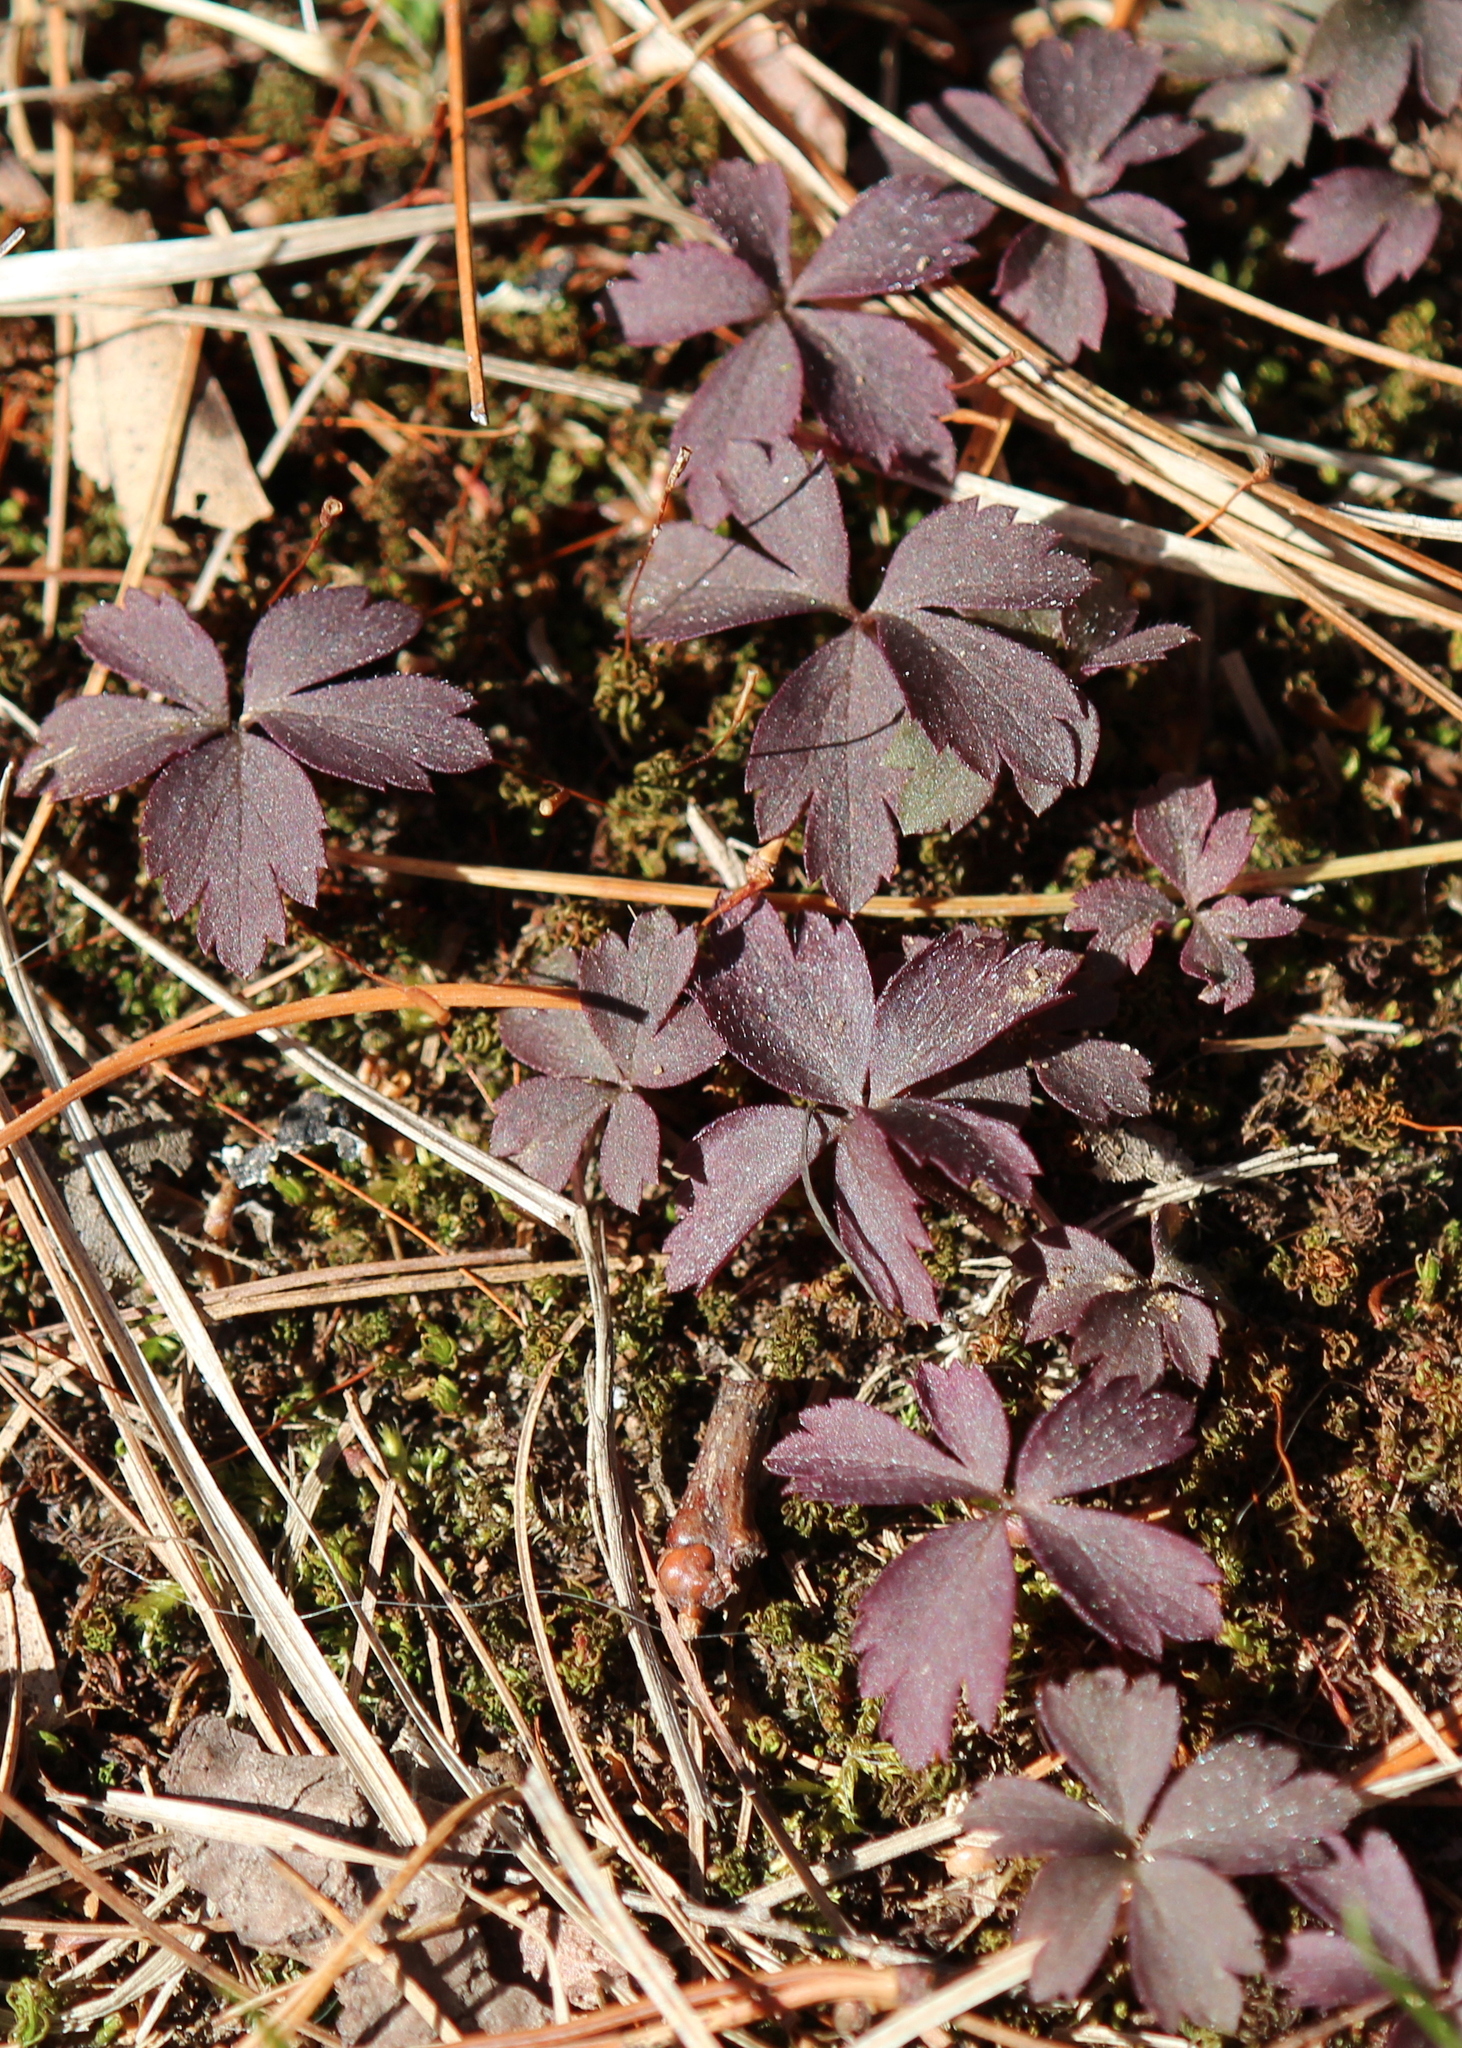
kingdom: Plantae
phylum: Tracheophyta
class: Magnoliopsida
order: Ranunculales
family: Ranunculaceae
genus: Anemone
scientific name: Anemone quinquefolia
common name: Wood anemone
